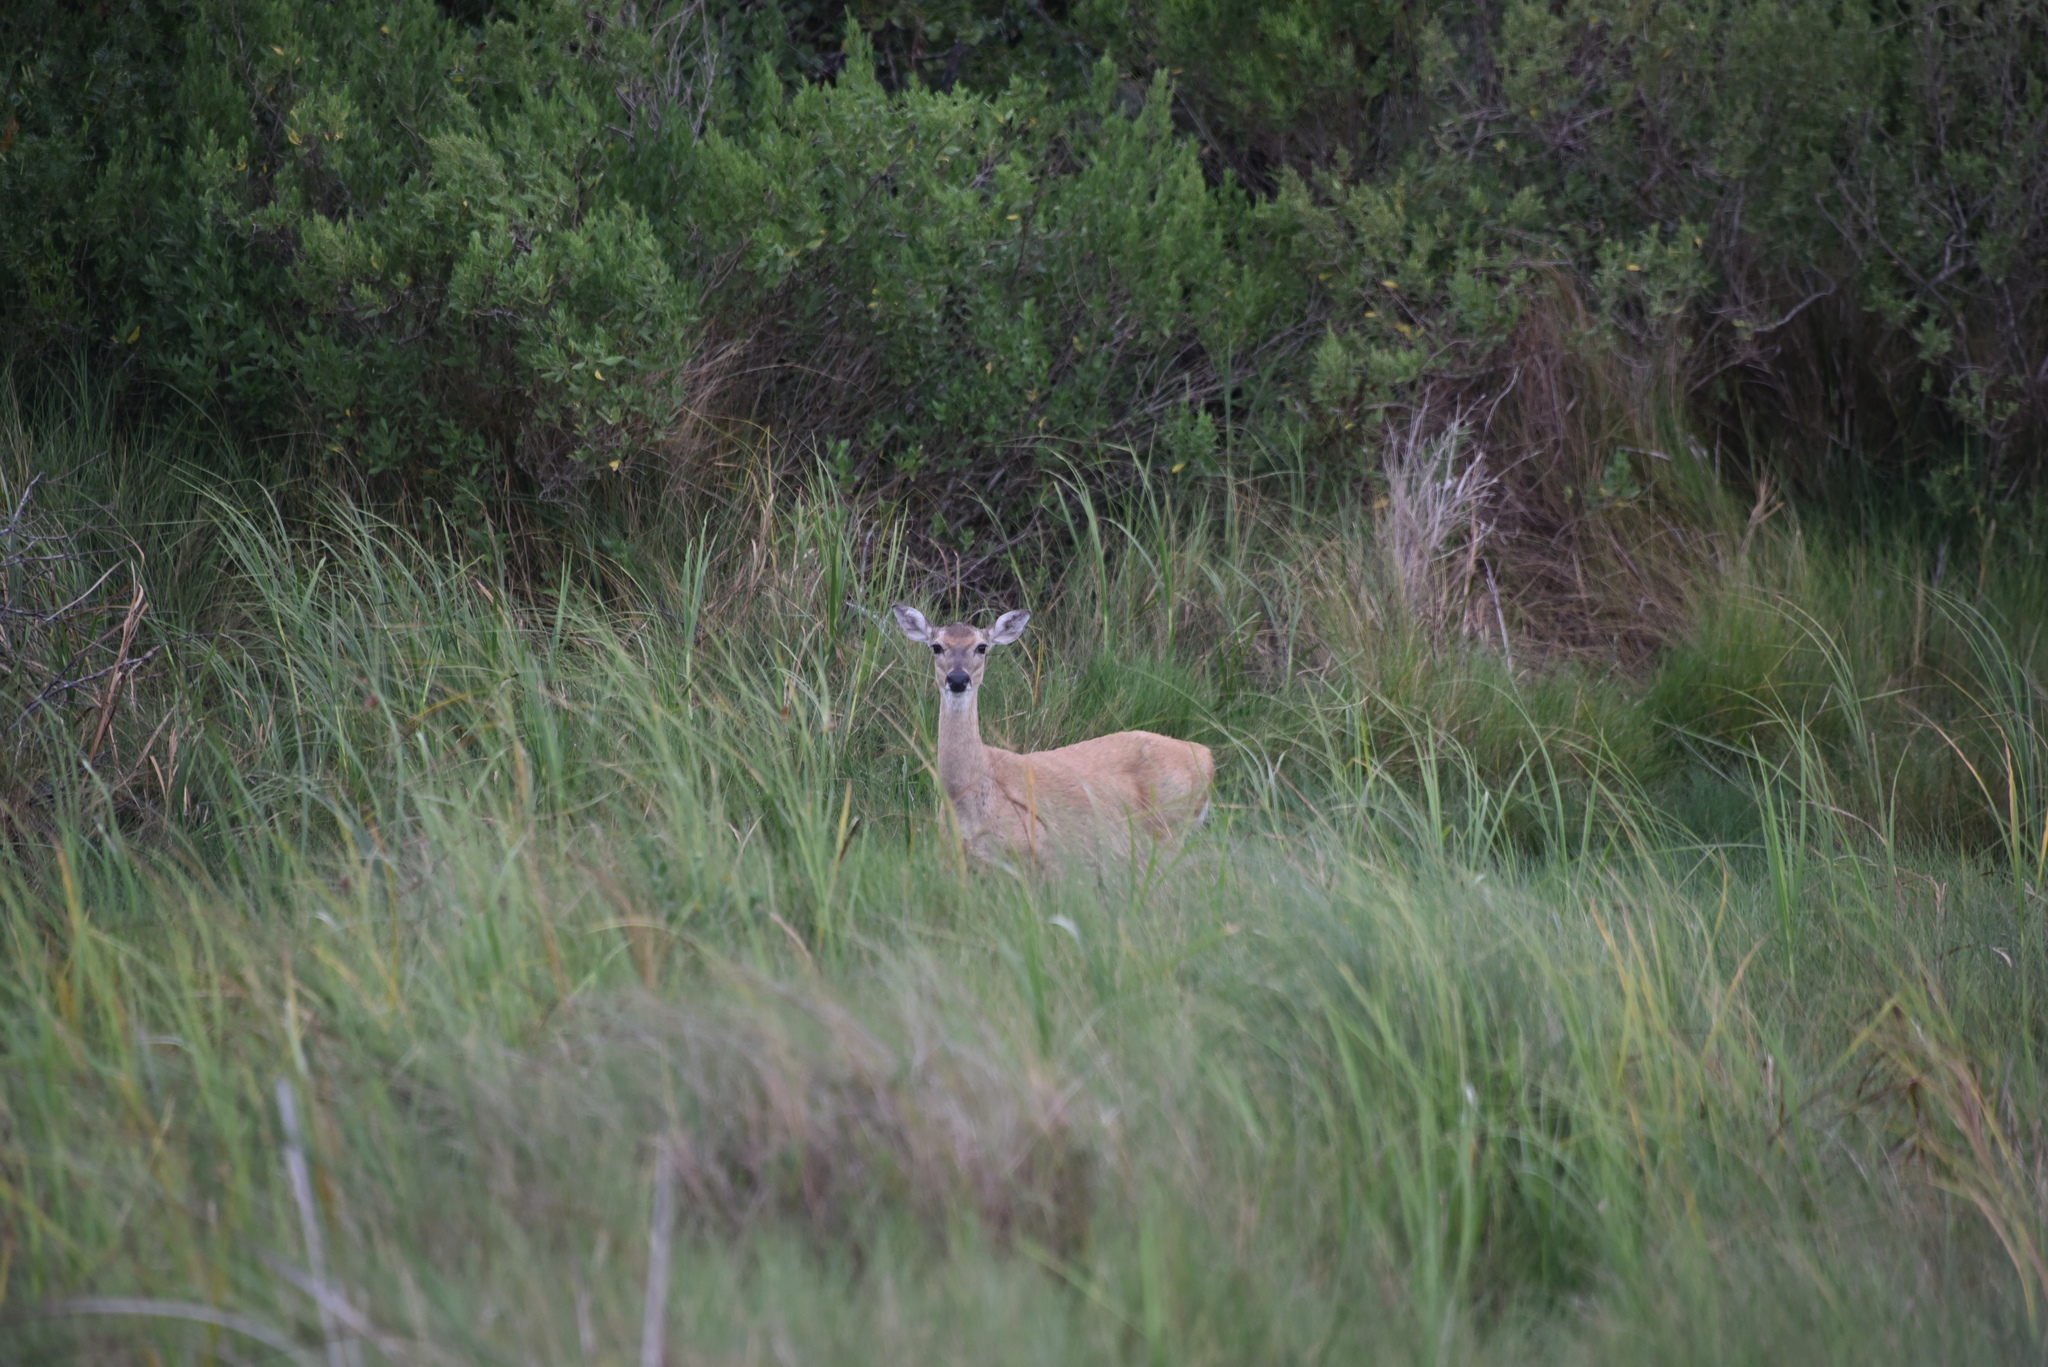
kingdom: Animalia
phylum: Chordata
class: Mammalia
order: Artiodactyla
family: Cervidae
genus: Odocoileus
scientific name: Odocoileus virginianus
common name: White-tailed deer
